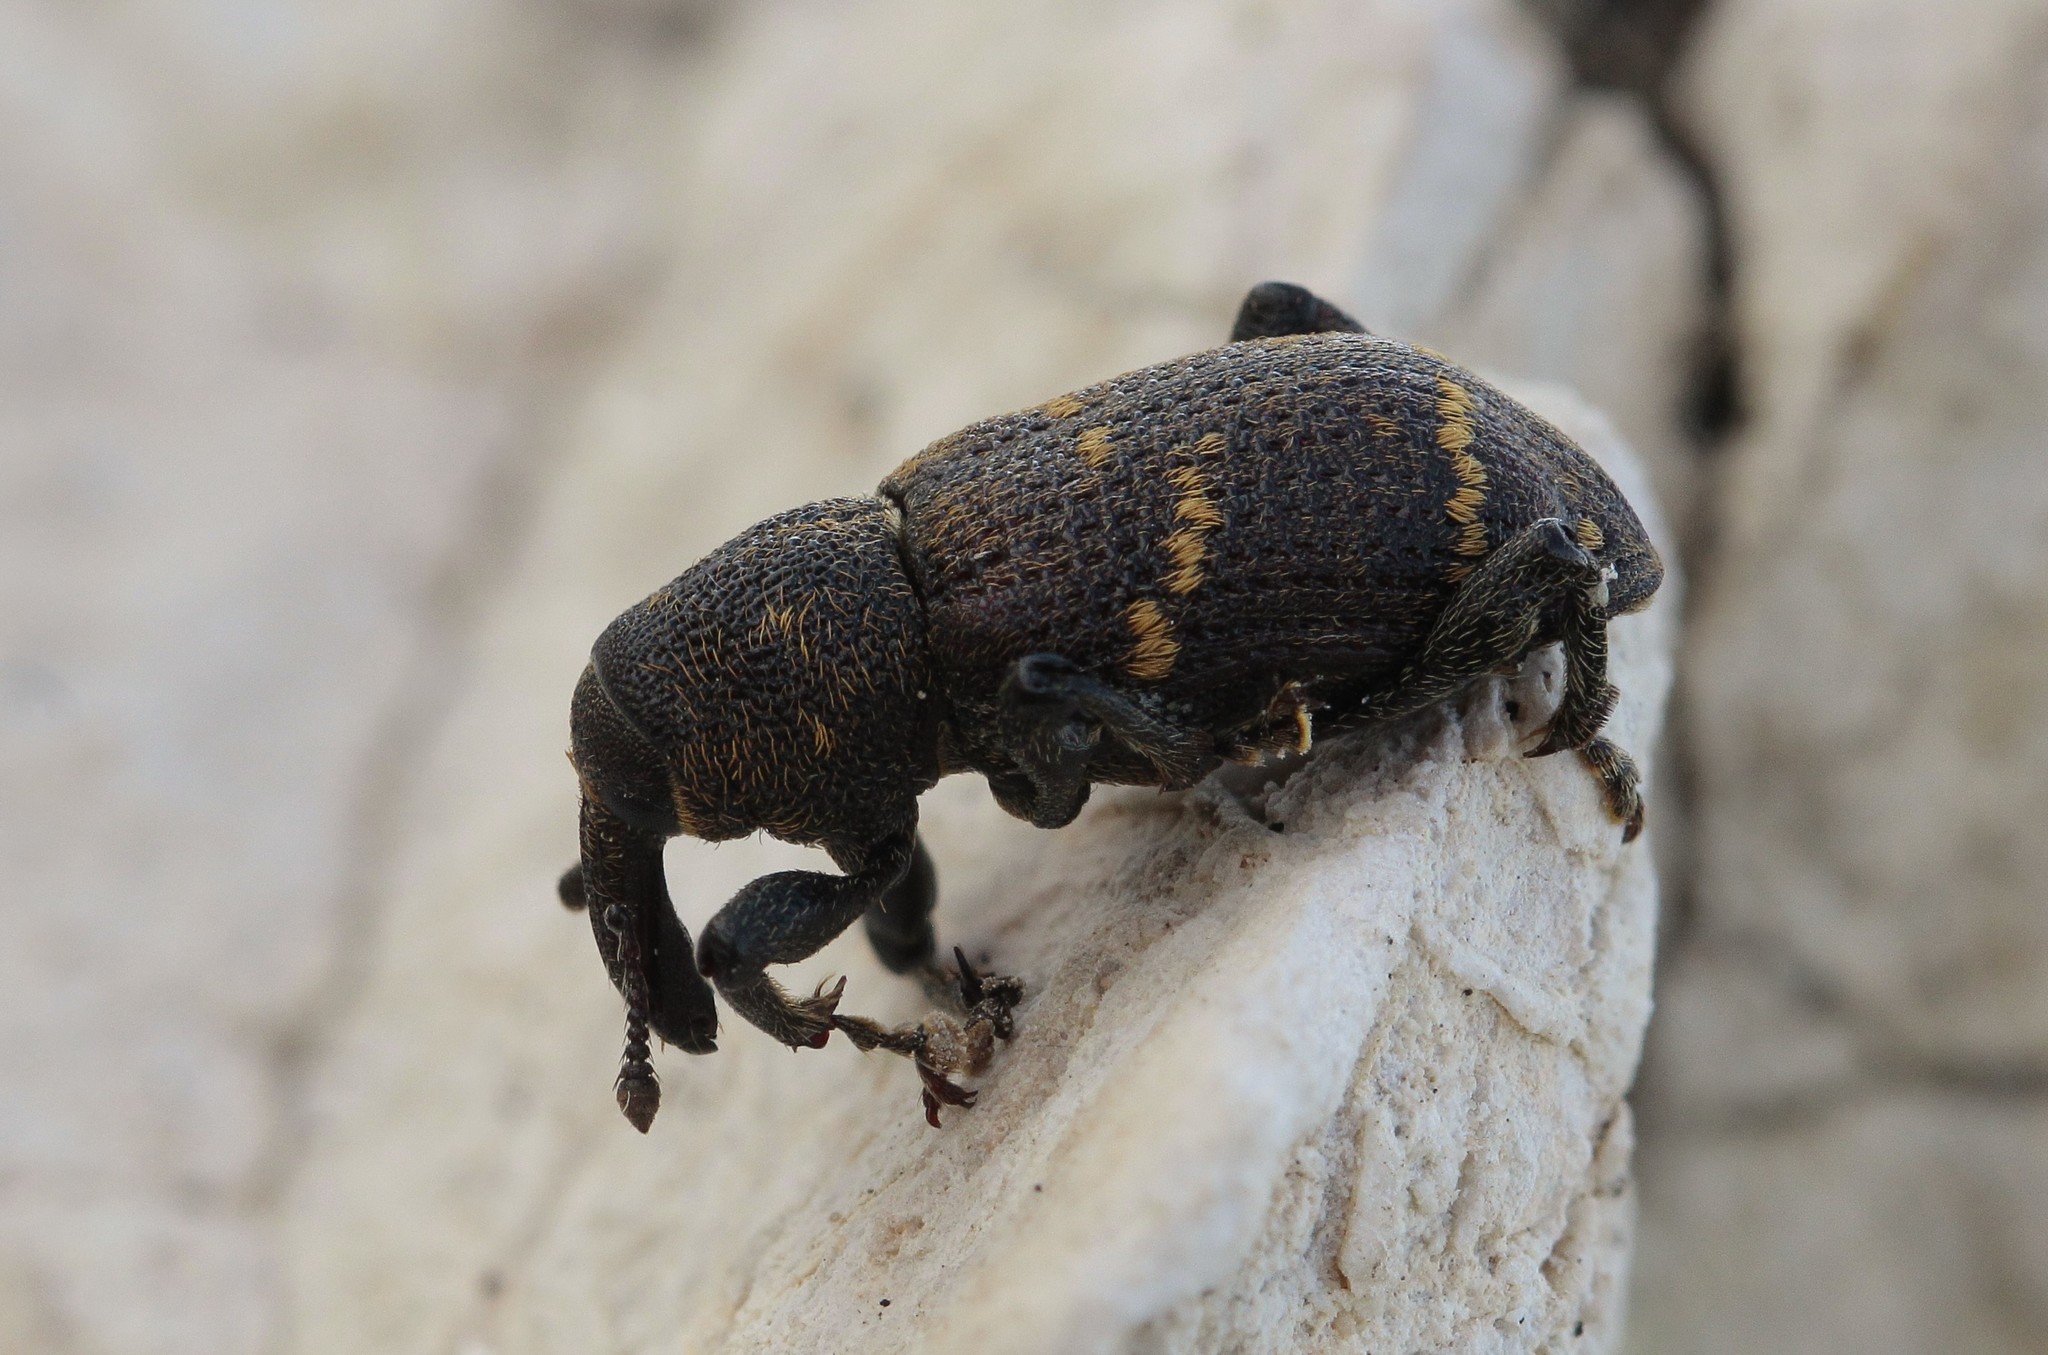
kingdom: Animalia
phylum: Arthropoda
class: Insecta
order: Coleoptera
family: Curculionidae
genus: Hylobius
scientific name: Hylobius abietis
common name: Large pine weevil
